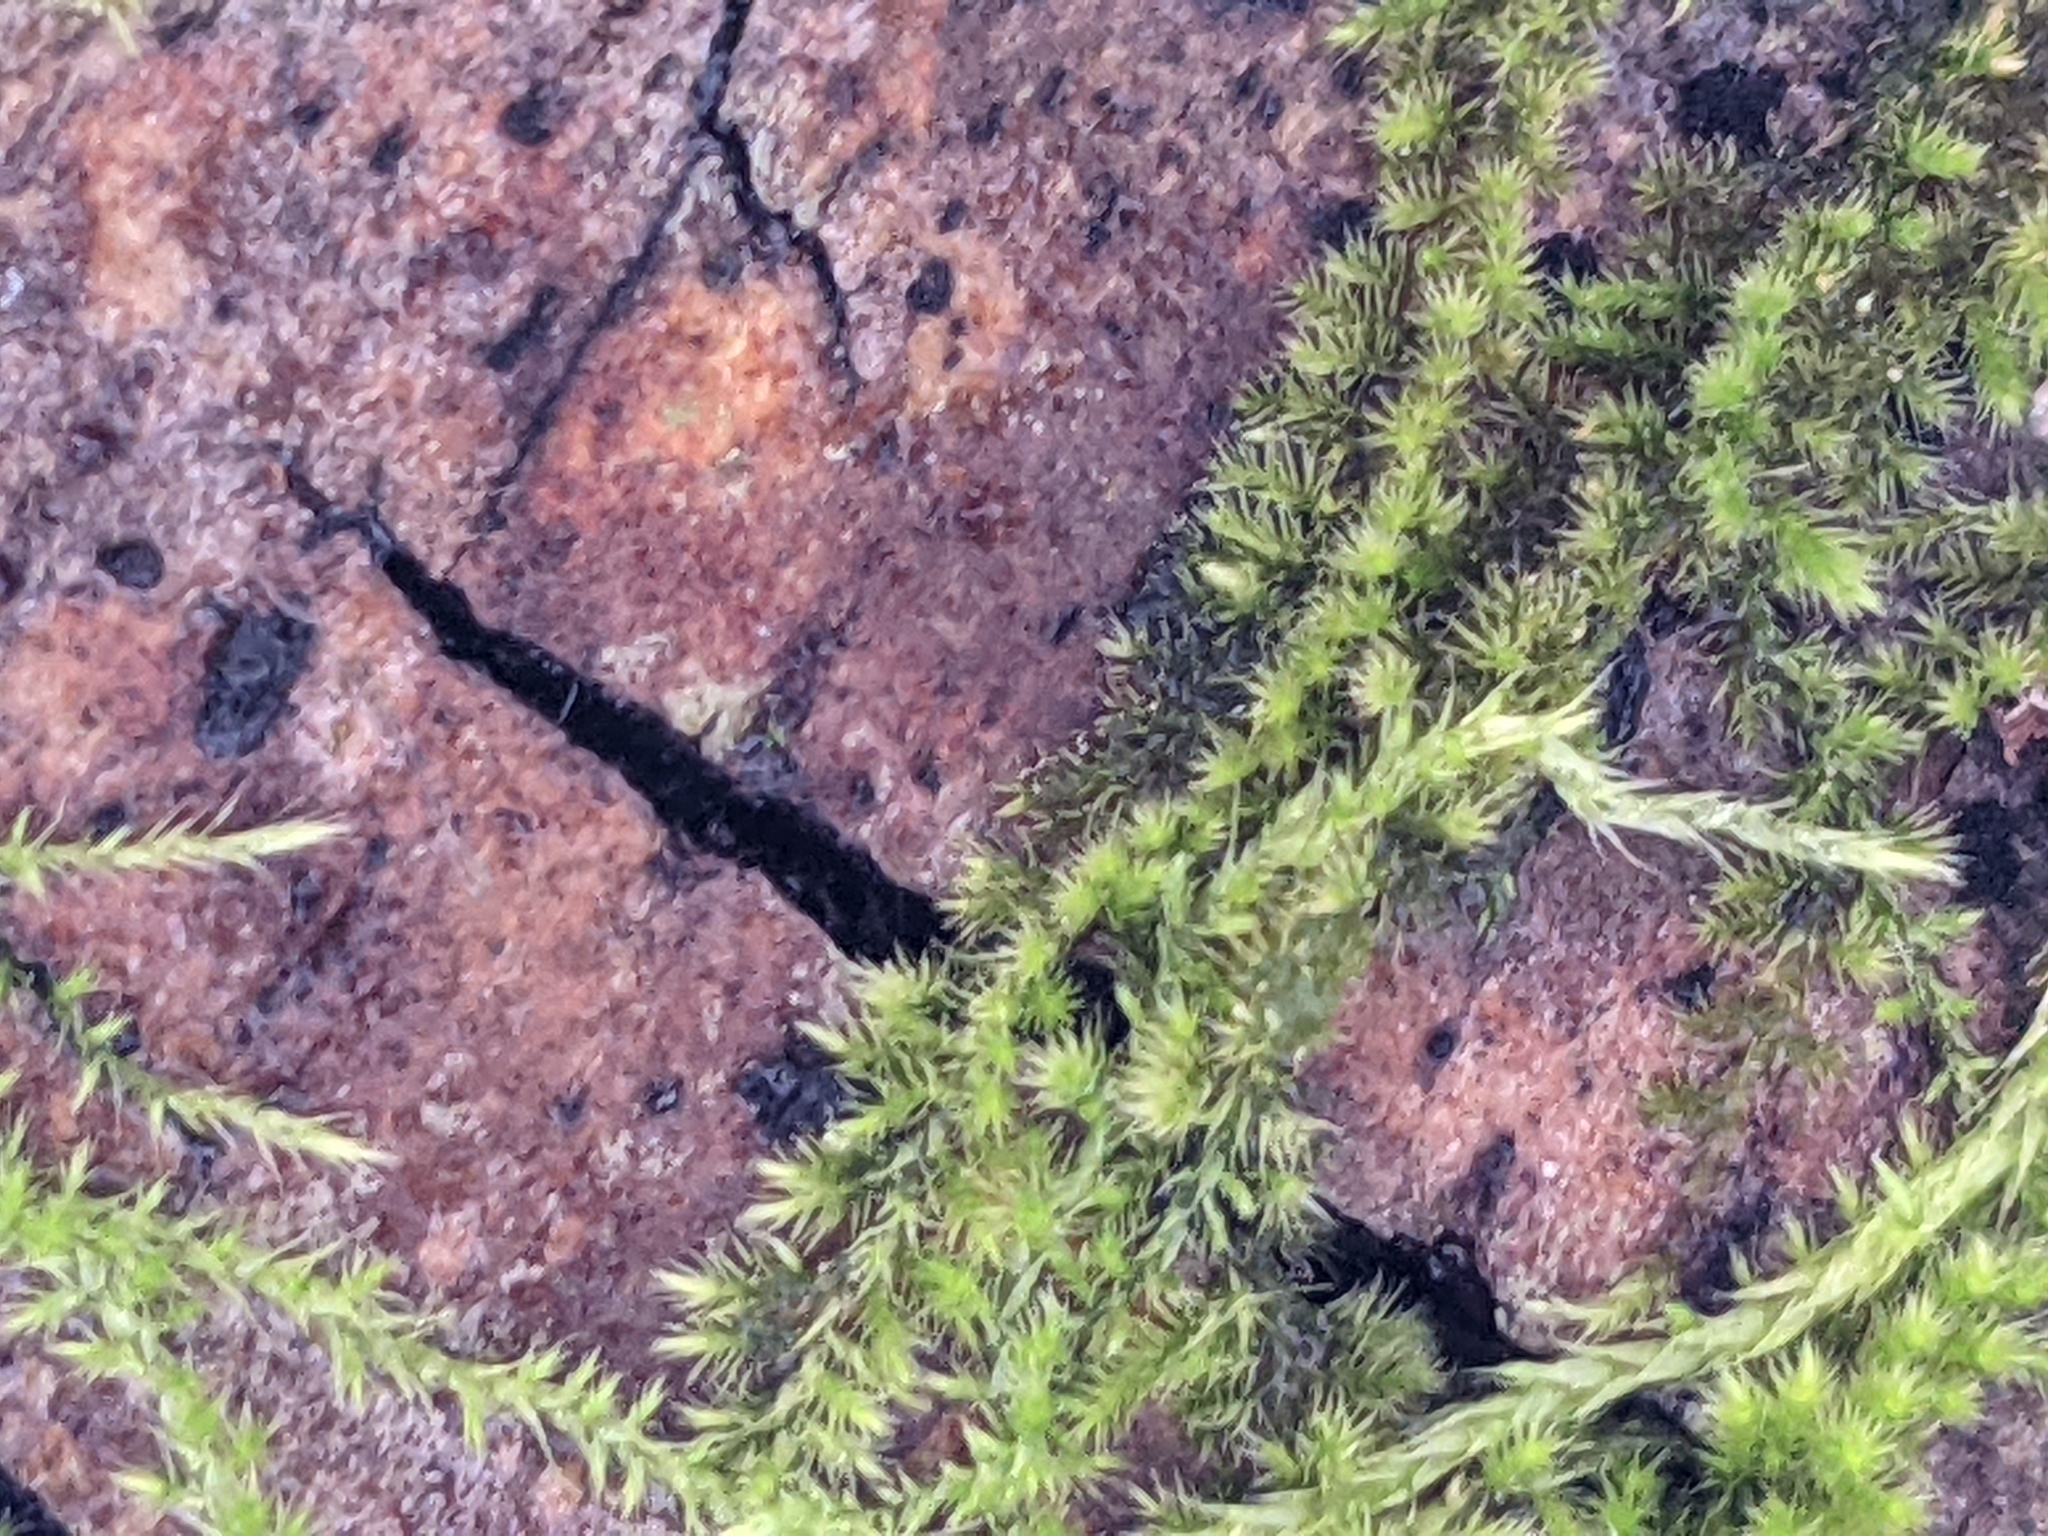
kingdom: Plantae
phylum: Bryophyta
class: Bryopsida
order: Hypnales
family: Brachytheciaceae
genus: Homalothecium
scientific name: Homalothecium nuttallii
